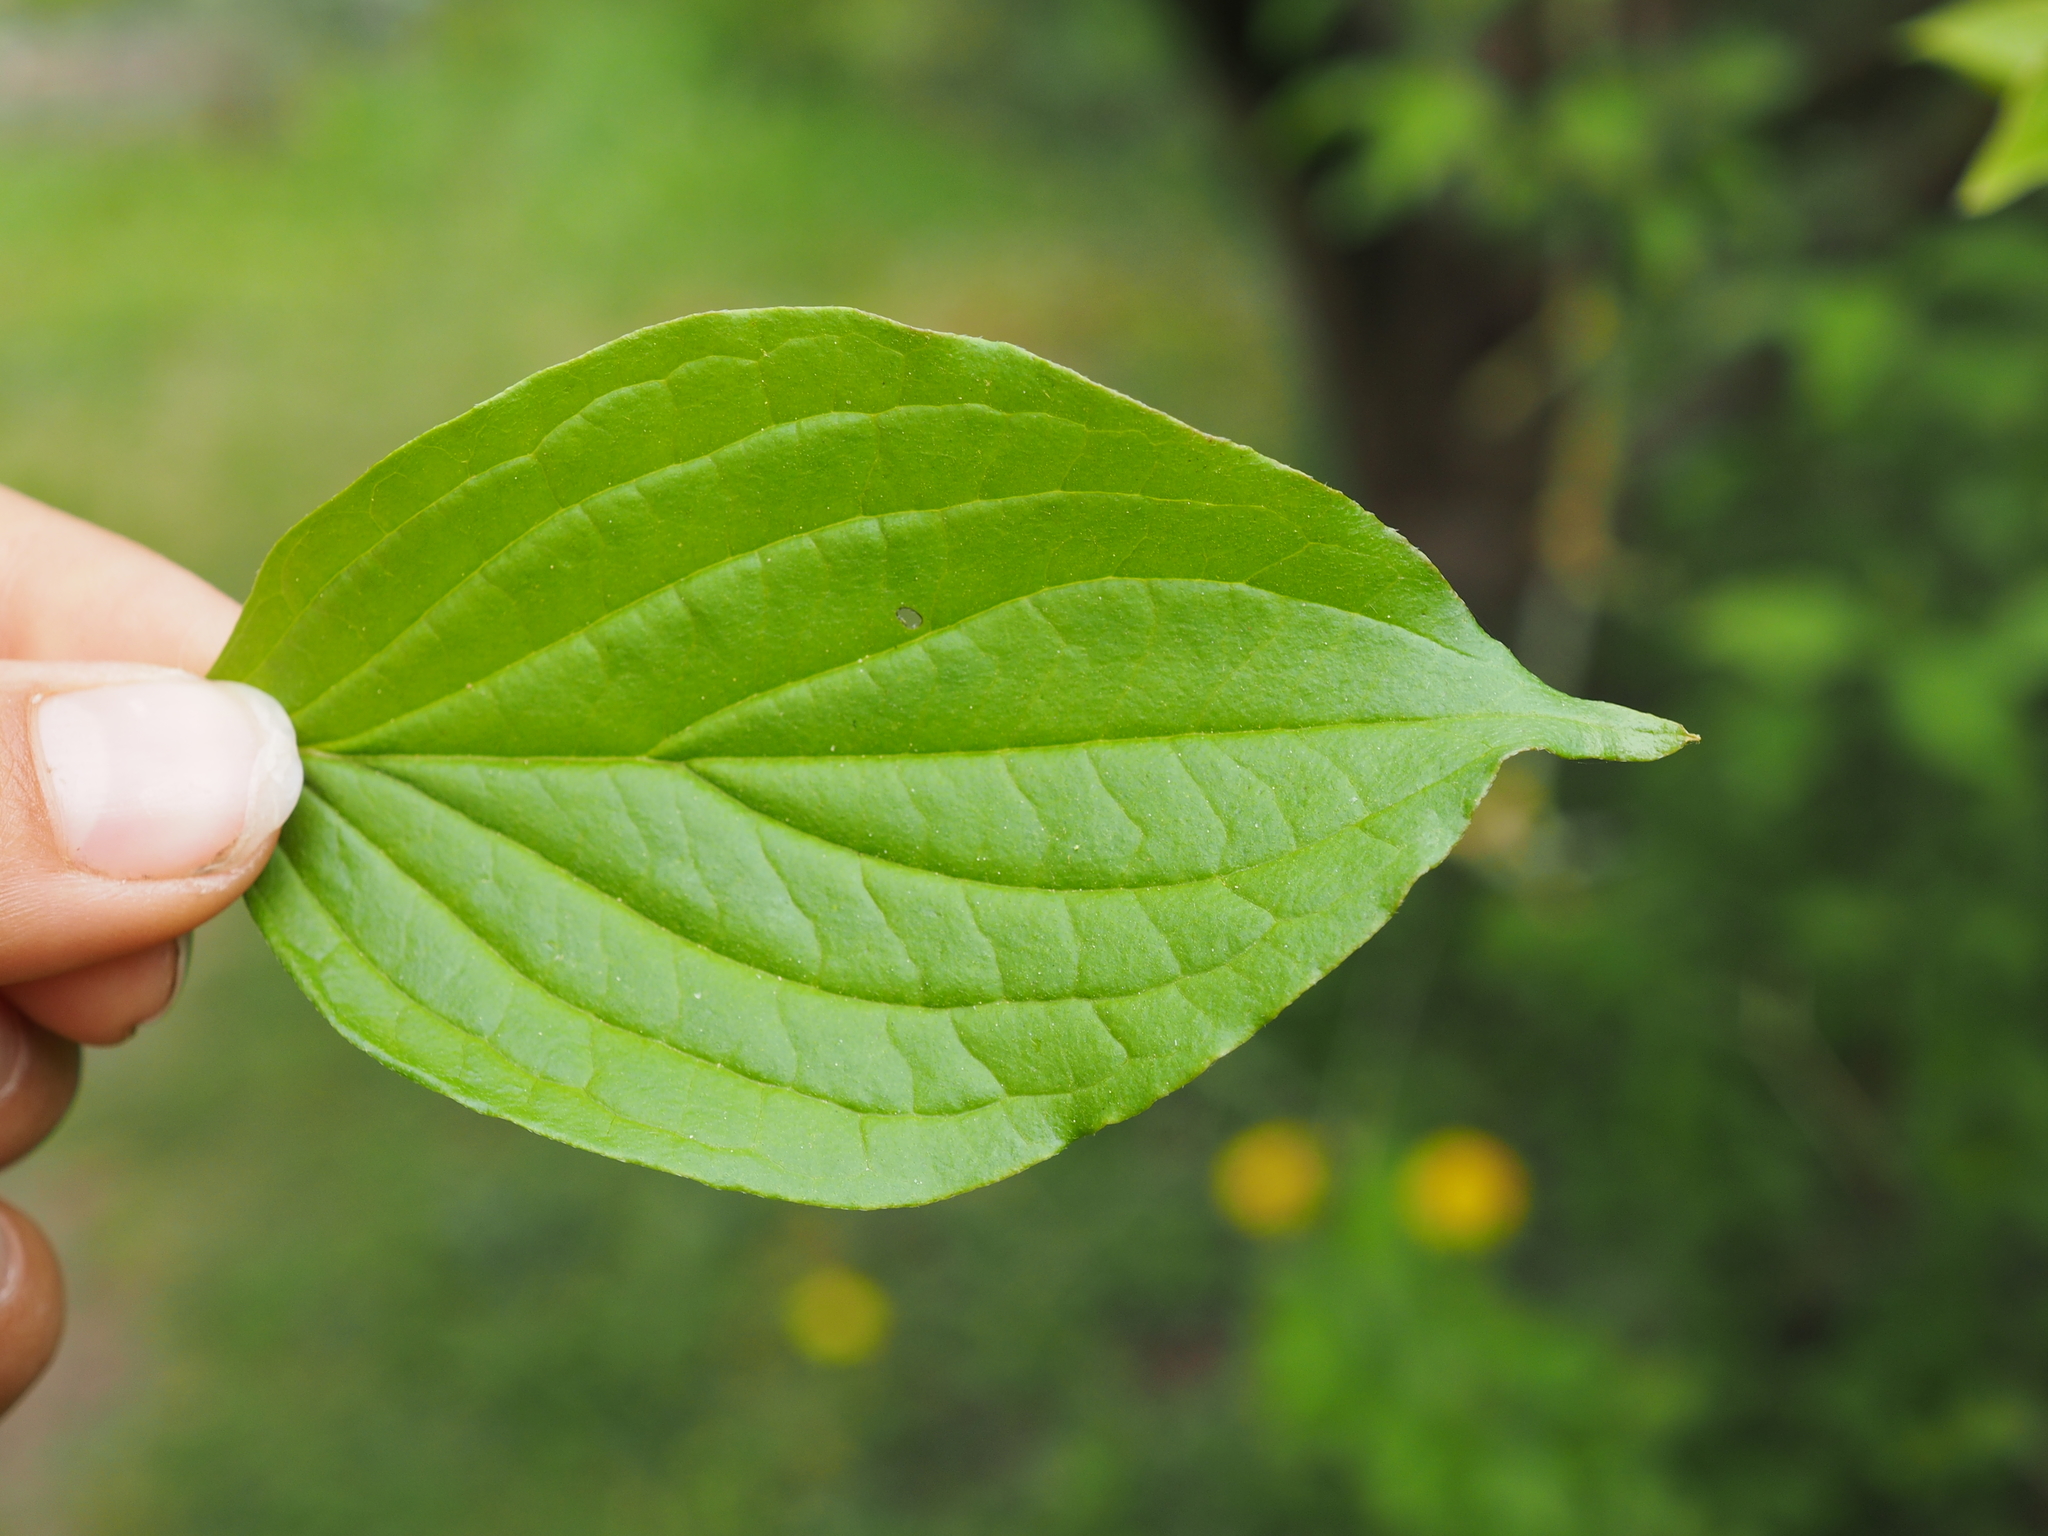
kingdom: Plantae
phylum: Tracheophyta
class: Magnoliopsida
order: Cornales
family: Cornaceae
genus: Cornus
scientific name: Cornus sanguinea
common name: Dogwood
